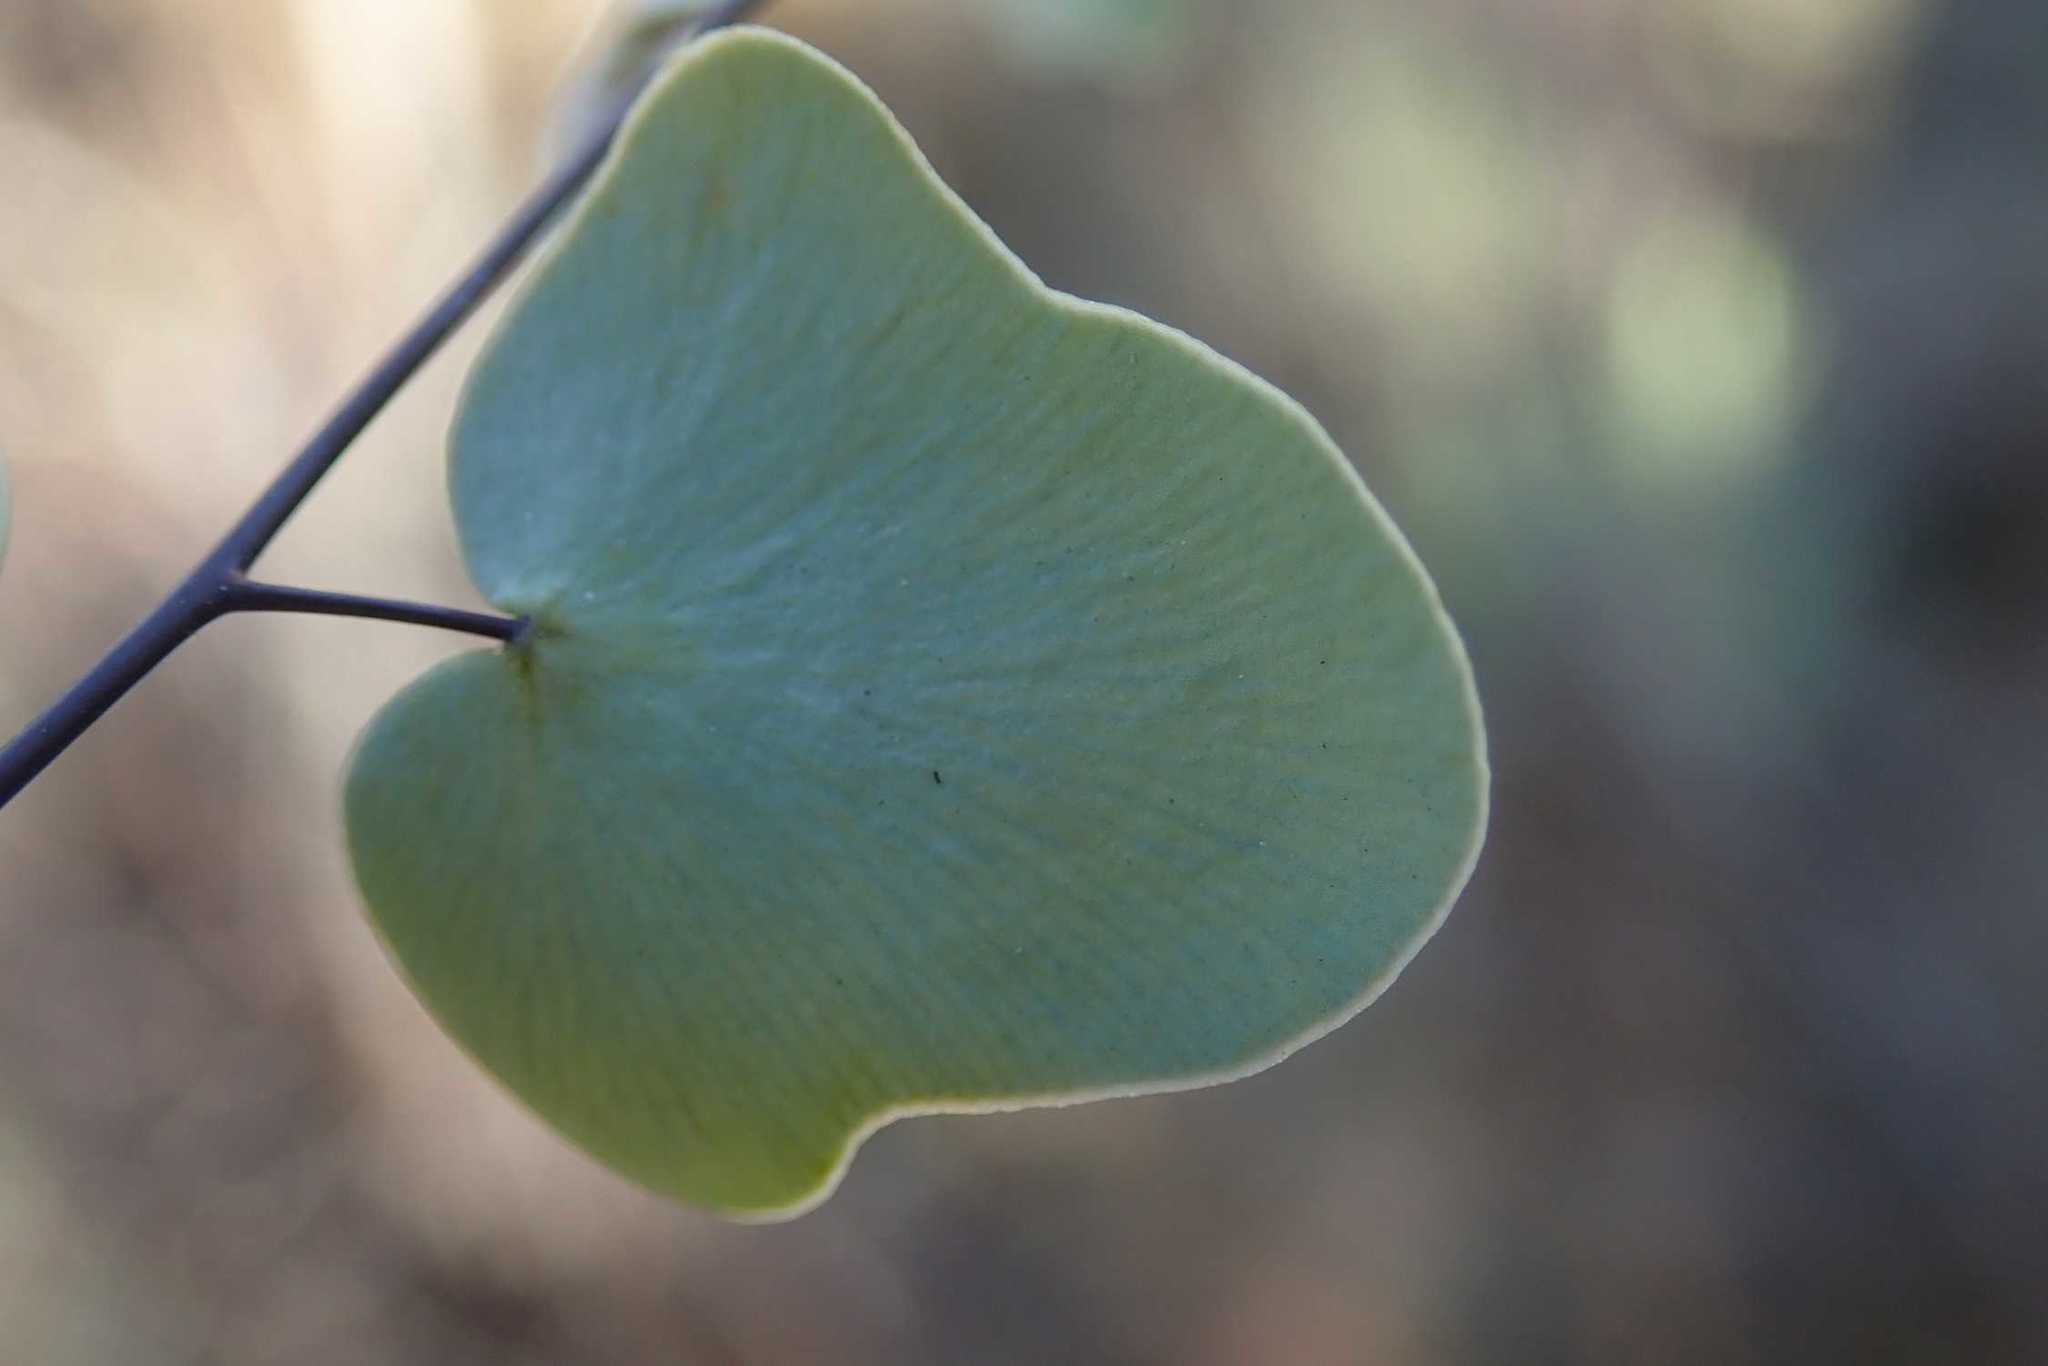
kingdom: Plantae
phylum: Tracheophyta
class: Polypodiopsida
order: Polypodiales
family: Pteridaceae
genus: Pellaea
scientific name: Pellaea calomelanos
